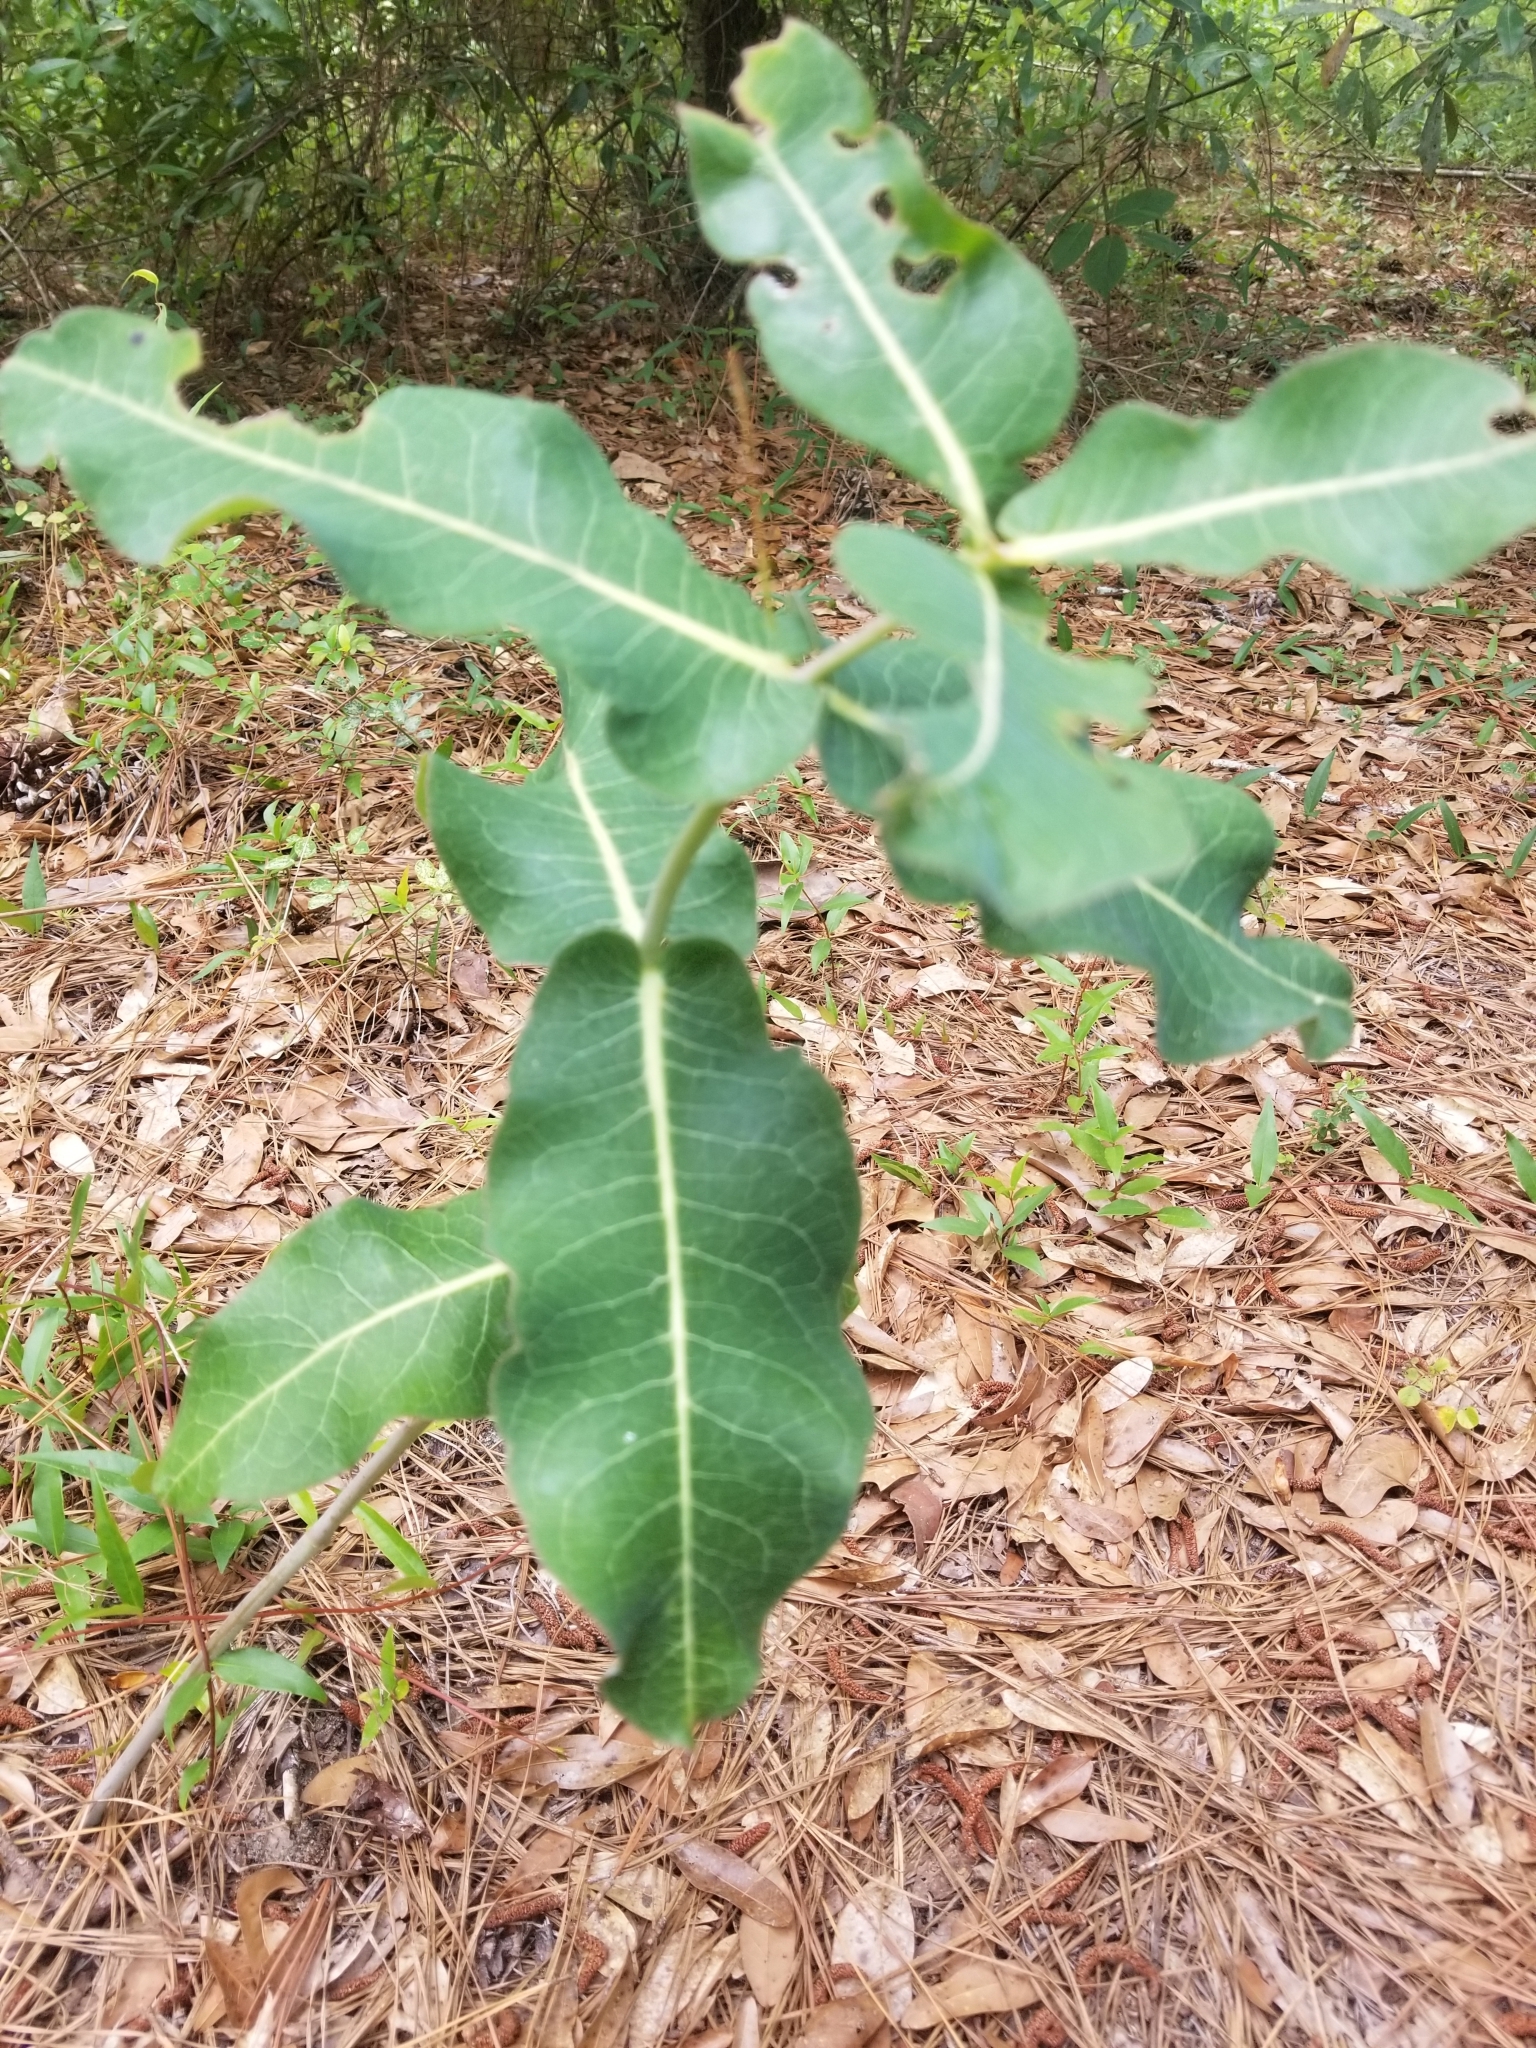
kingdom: Plantae
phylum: Tracheophyta
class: Magnoliopsida
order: Gentianales
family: Apocynaceae
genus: Asclepias
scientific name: Asclepias amplexicaulis
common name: Blunt-leaf milkweed
